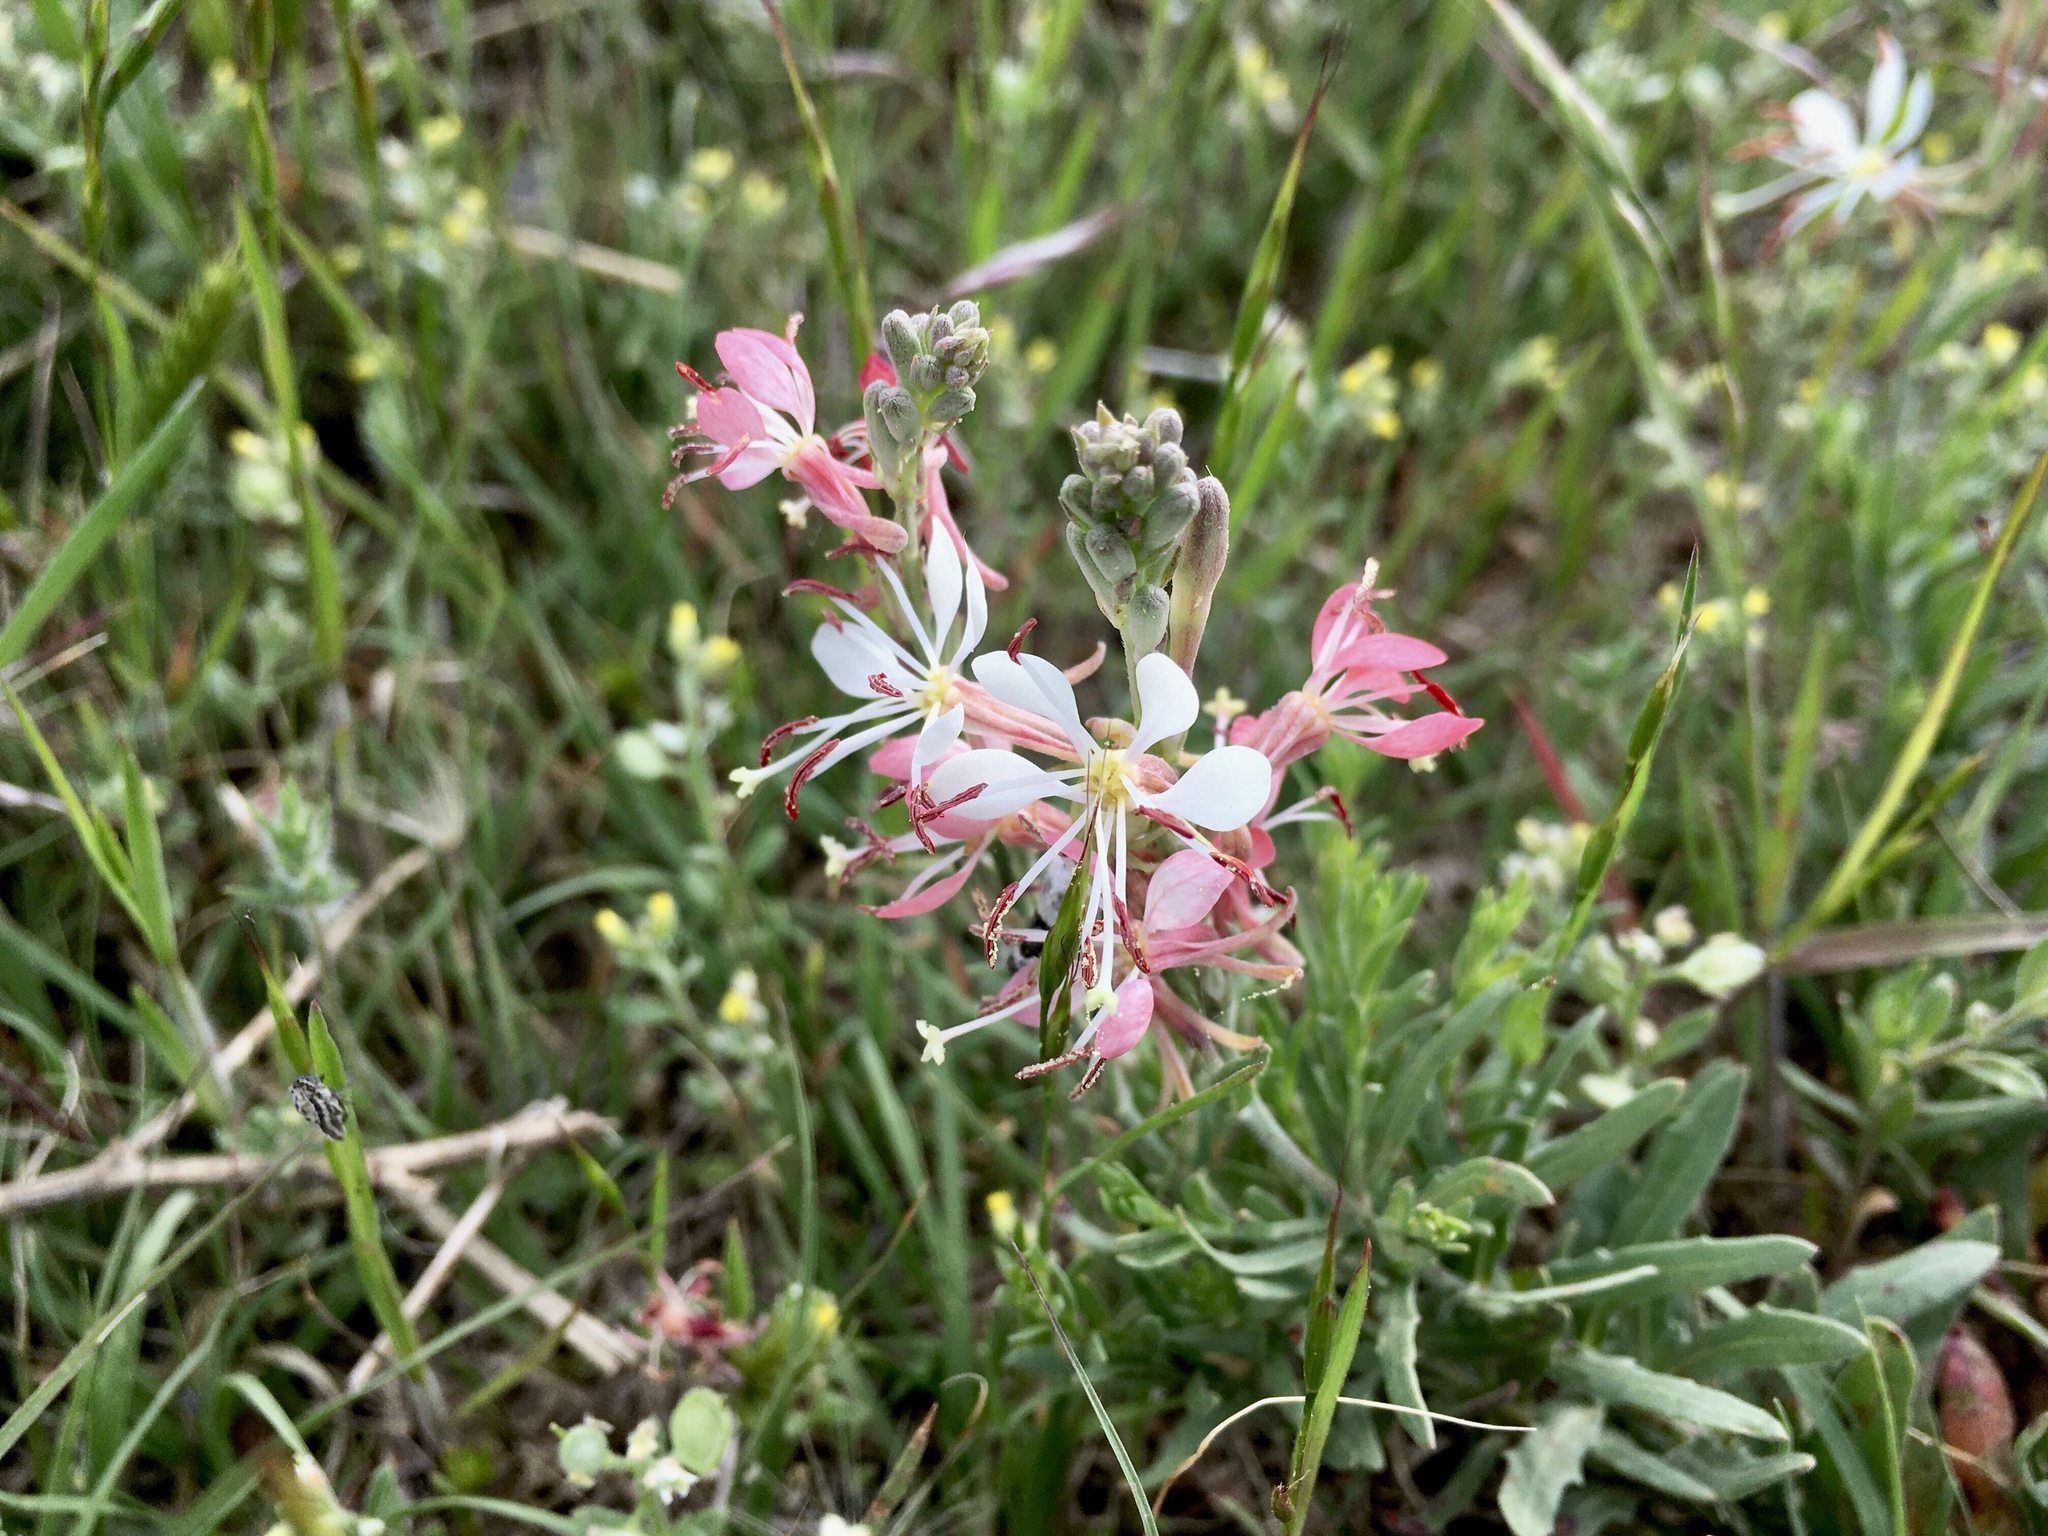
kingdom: Plantae
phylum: Tracheophyta
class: Magnoliopsida
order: Myrtales
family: Onagraceae
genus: Oenothera
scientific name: Oenothera suffrutescens
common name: Scarlet beeblossom
